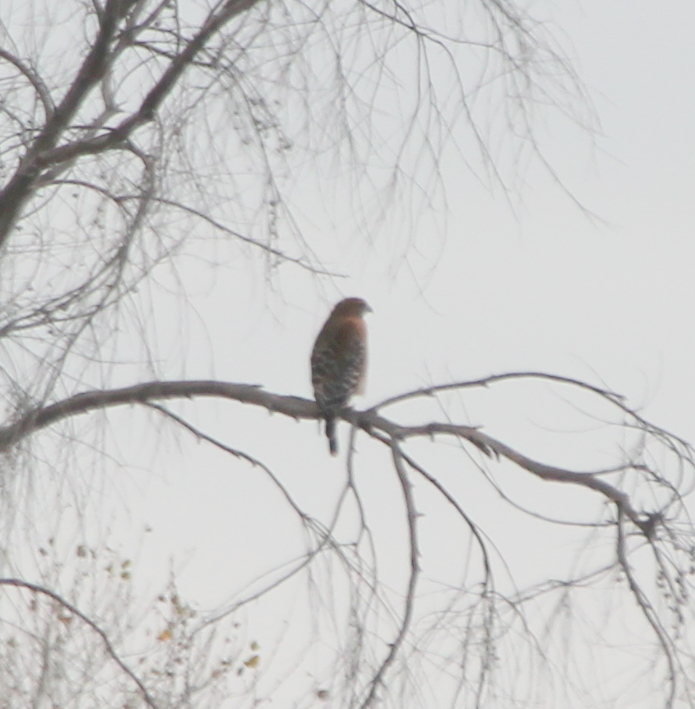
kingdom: Animalia
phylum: Chordata
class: Aves
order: Accipitriformes
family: Accipitridae
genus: Buteo
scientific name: Buteo lineatus
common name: Red-shouldered hawk
